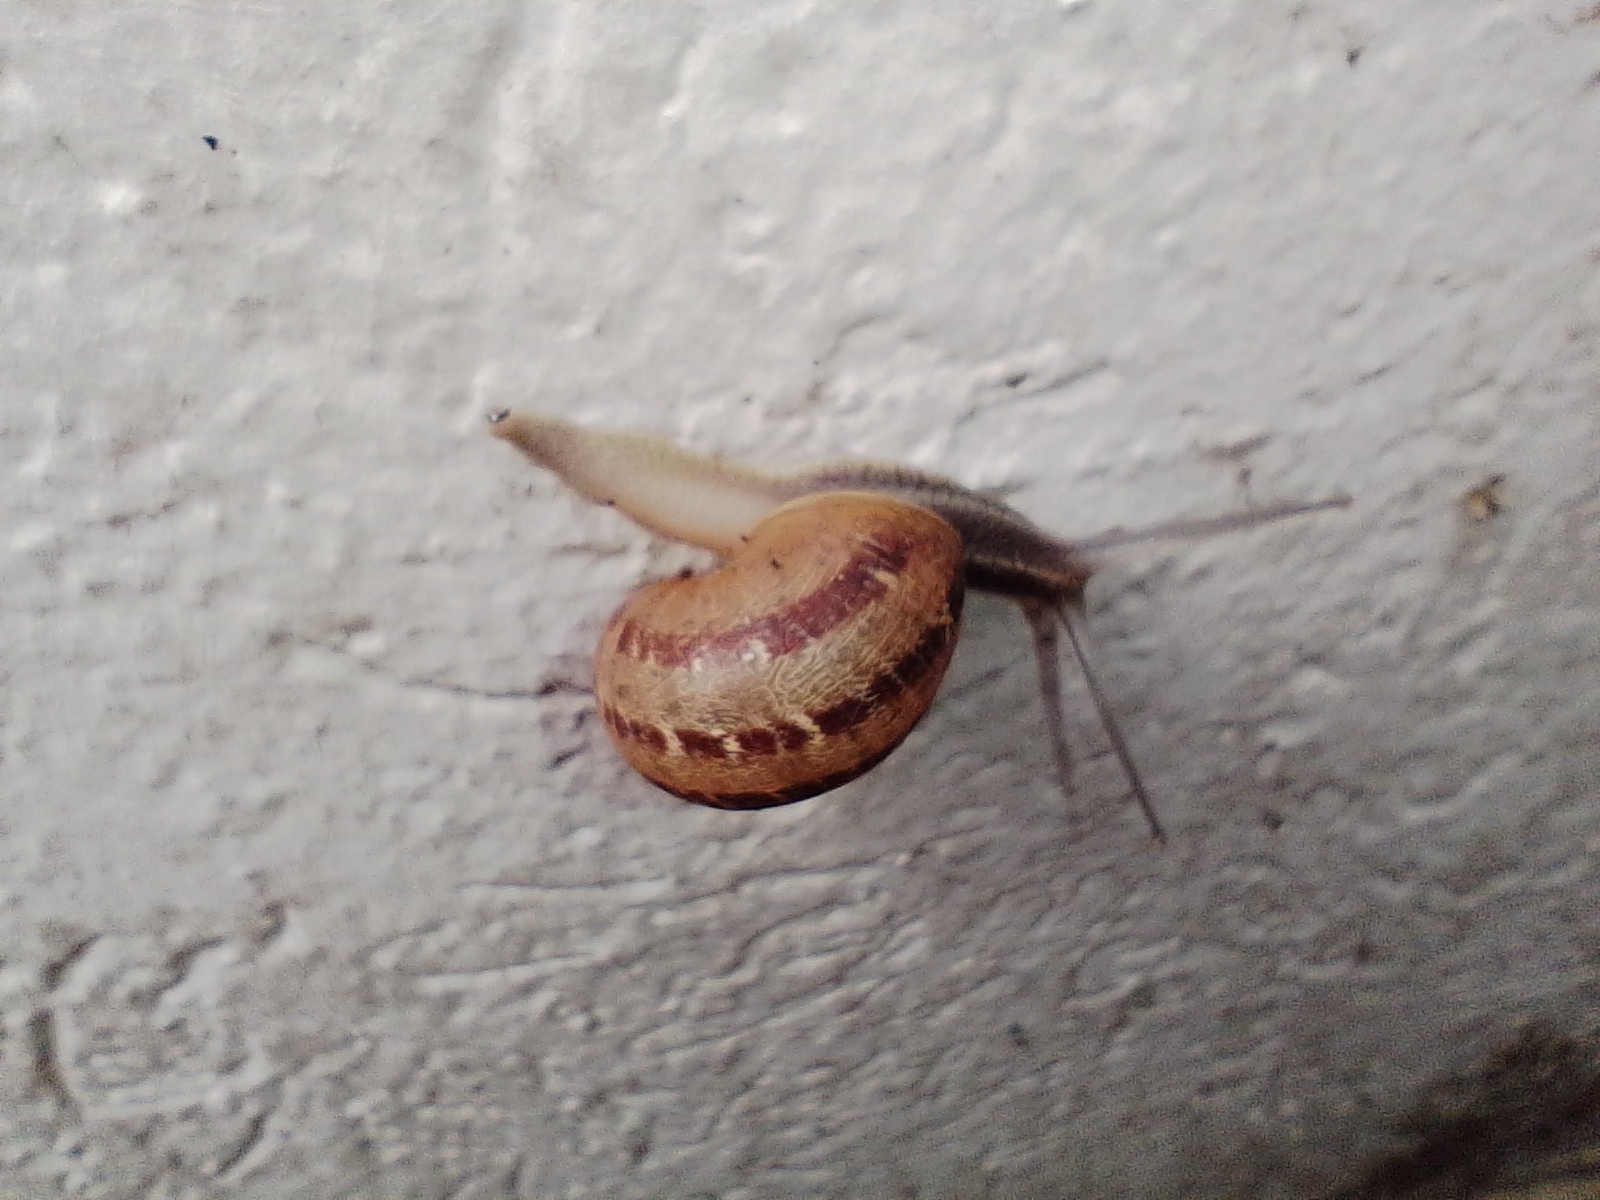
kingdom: Animalia
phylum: Mollusca
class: Gastropoda
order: Stylommatophora
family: Helicidae
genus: Cornu
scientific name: Cornu aspersum
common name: Brown garden snail
